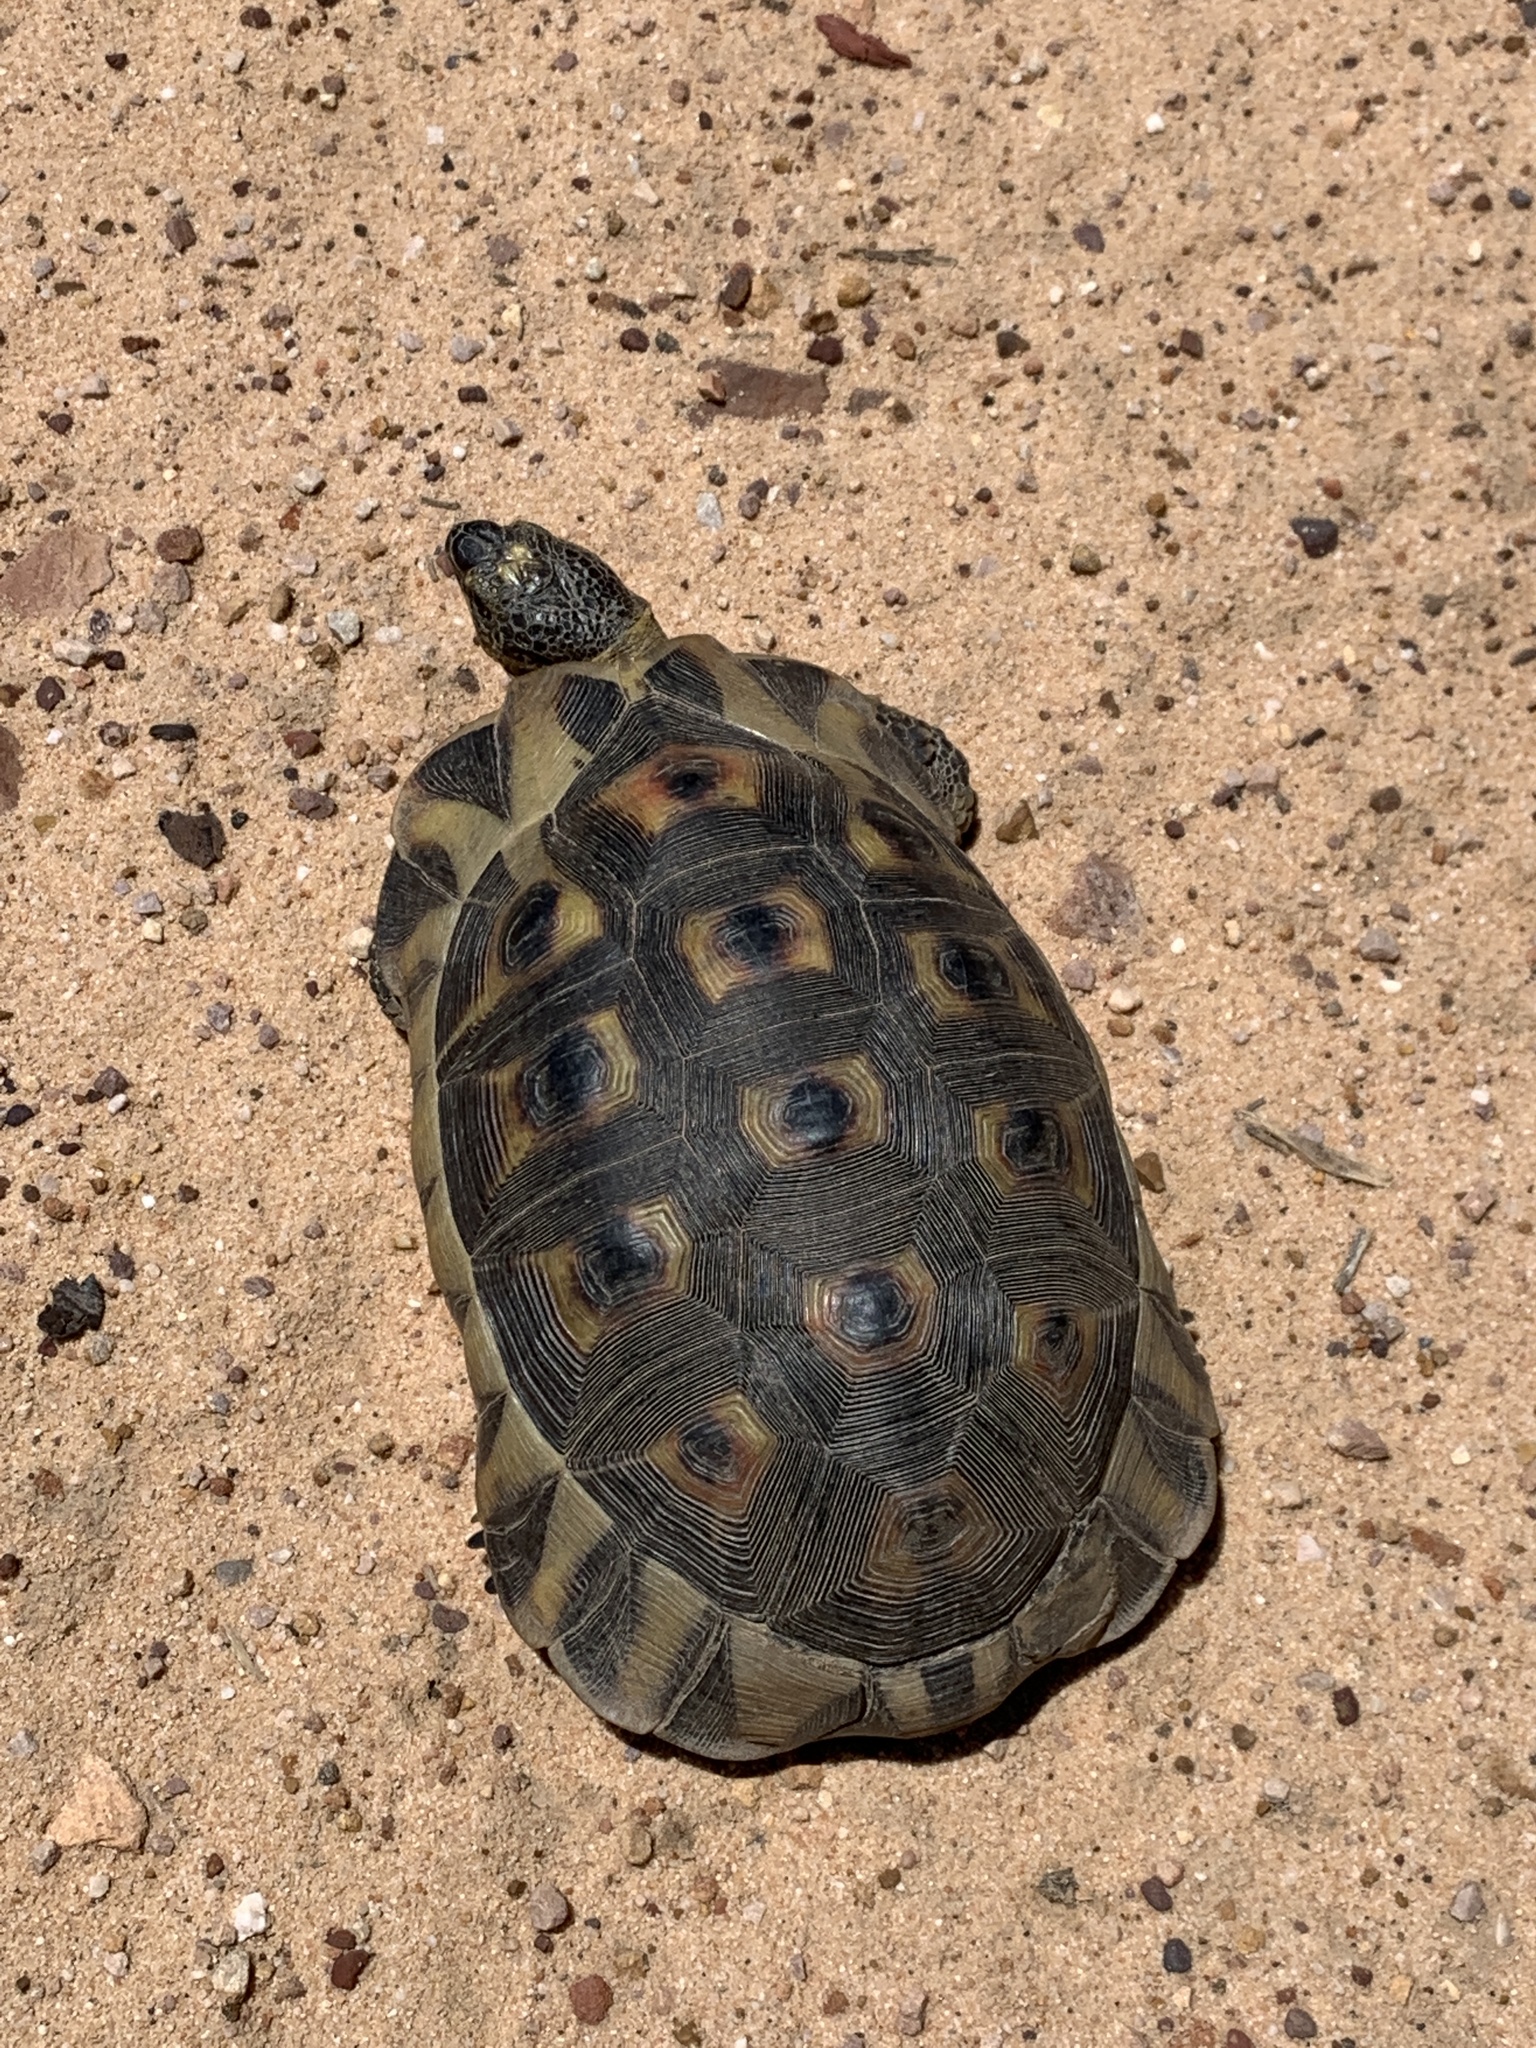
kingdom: Animalia
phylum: Chordata
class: Testudines
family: Testudinidae
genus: Chersina
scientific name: Chersina angulata
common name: South african bowsprit tortoise
